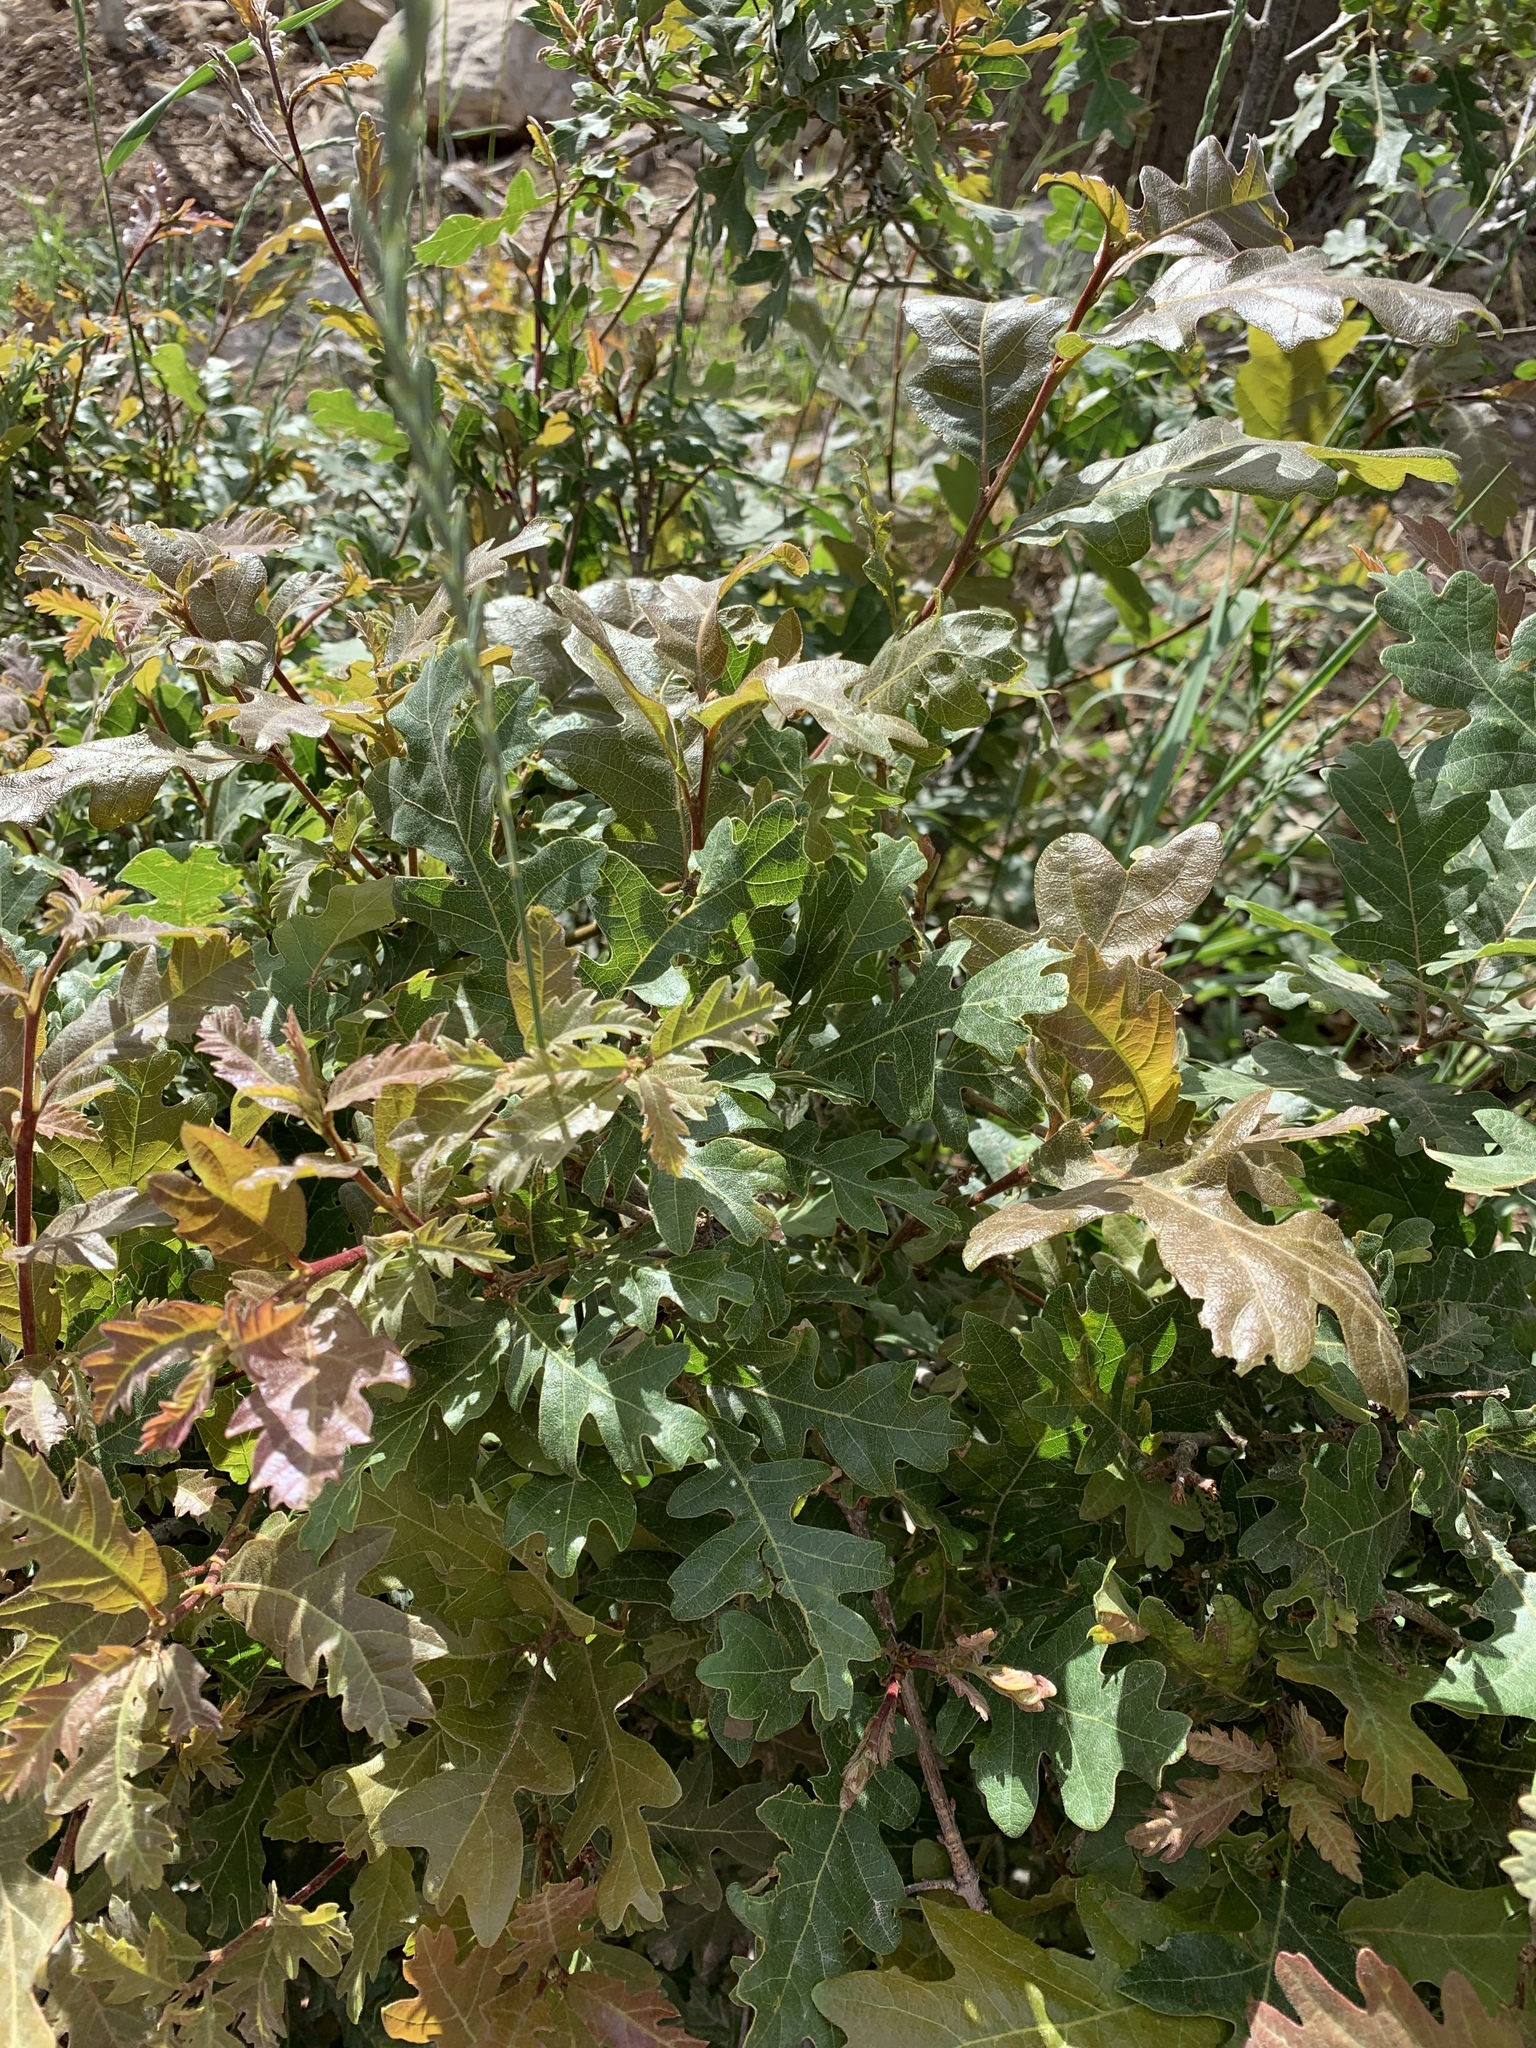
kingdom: Plantae
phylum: Tracheophyta
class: Magnoliopsida
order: Fagales
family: Fagaceae
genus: Quercus
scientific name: Quercus gambelii
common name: Gambel oak
